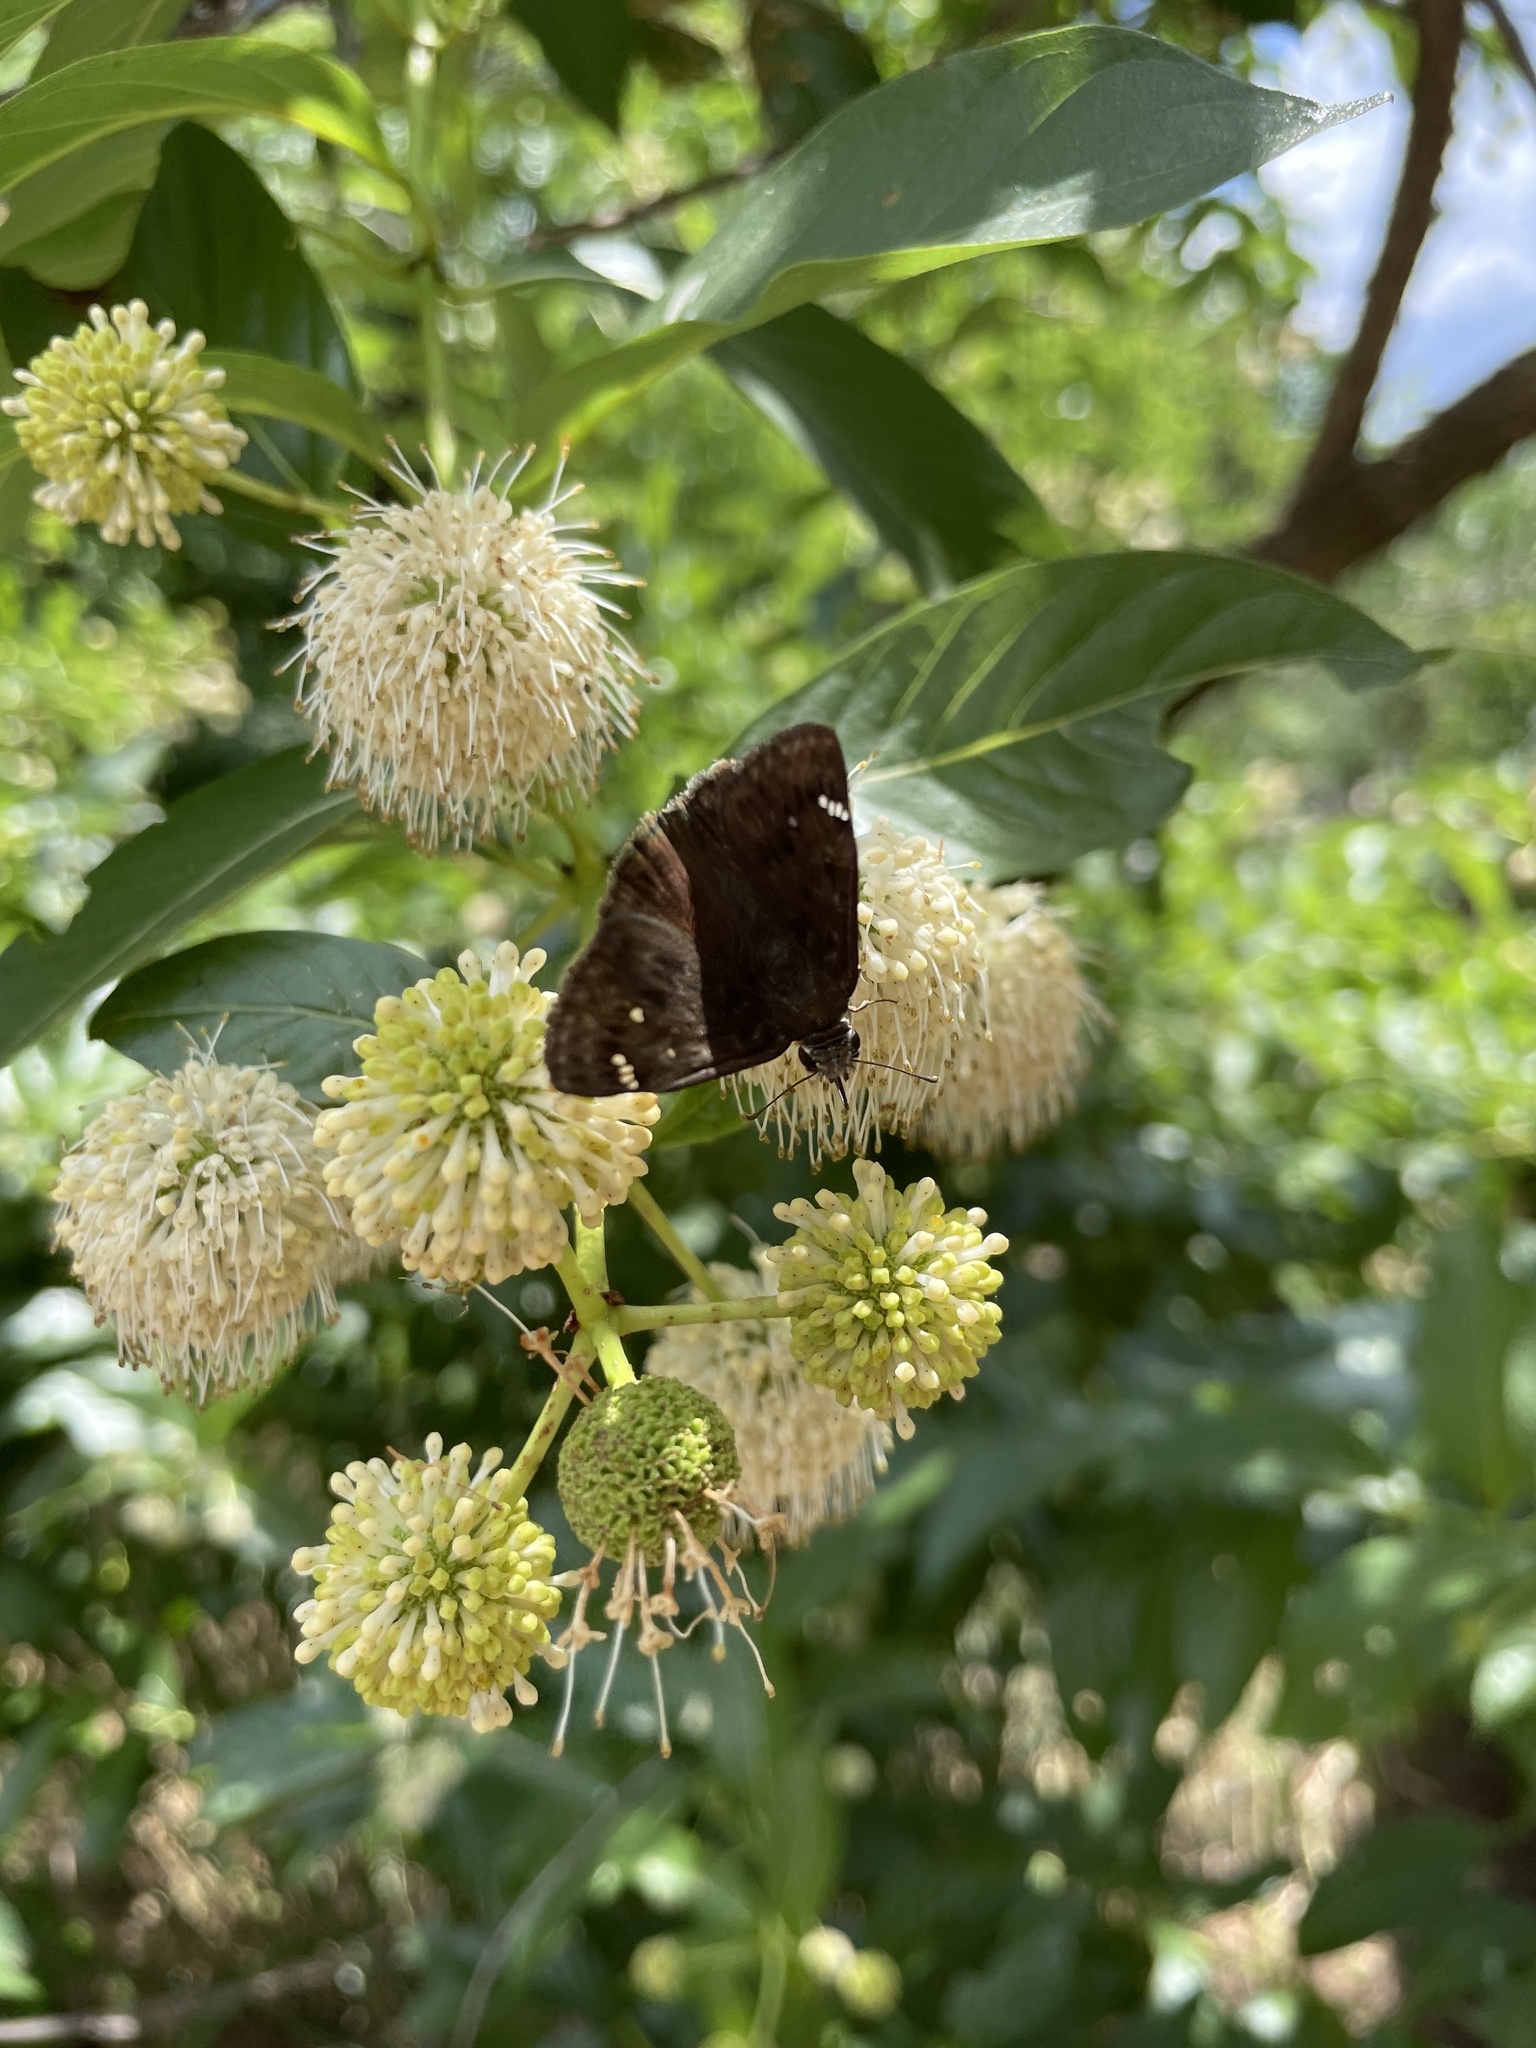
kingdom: Animalia
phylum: Arthropoda
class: Insecta
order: Lepidoptera
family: Hesperiidae
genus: Erynnis
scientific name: Erynnis horatius
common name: Horace's duskywing
